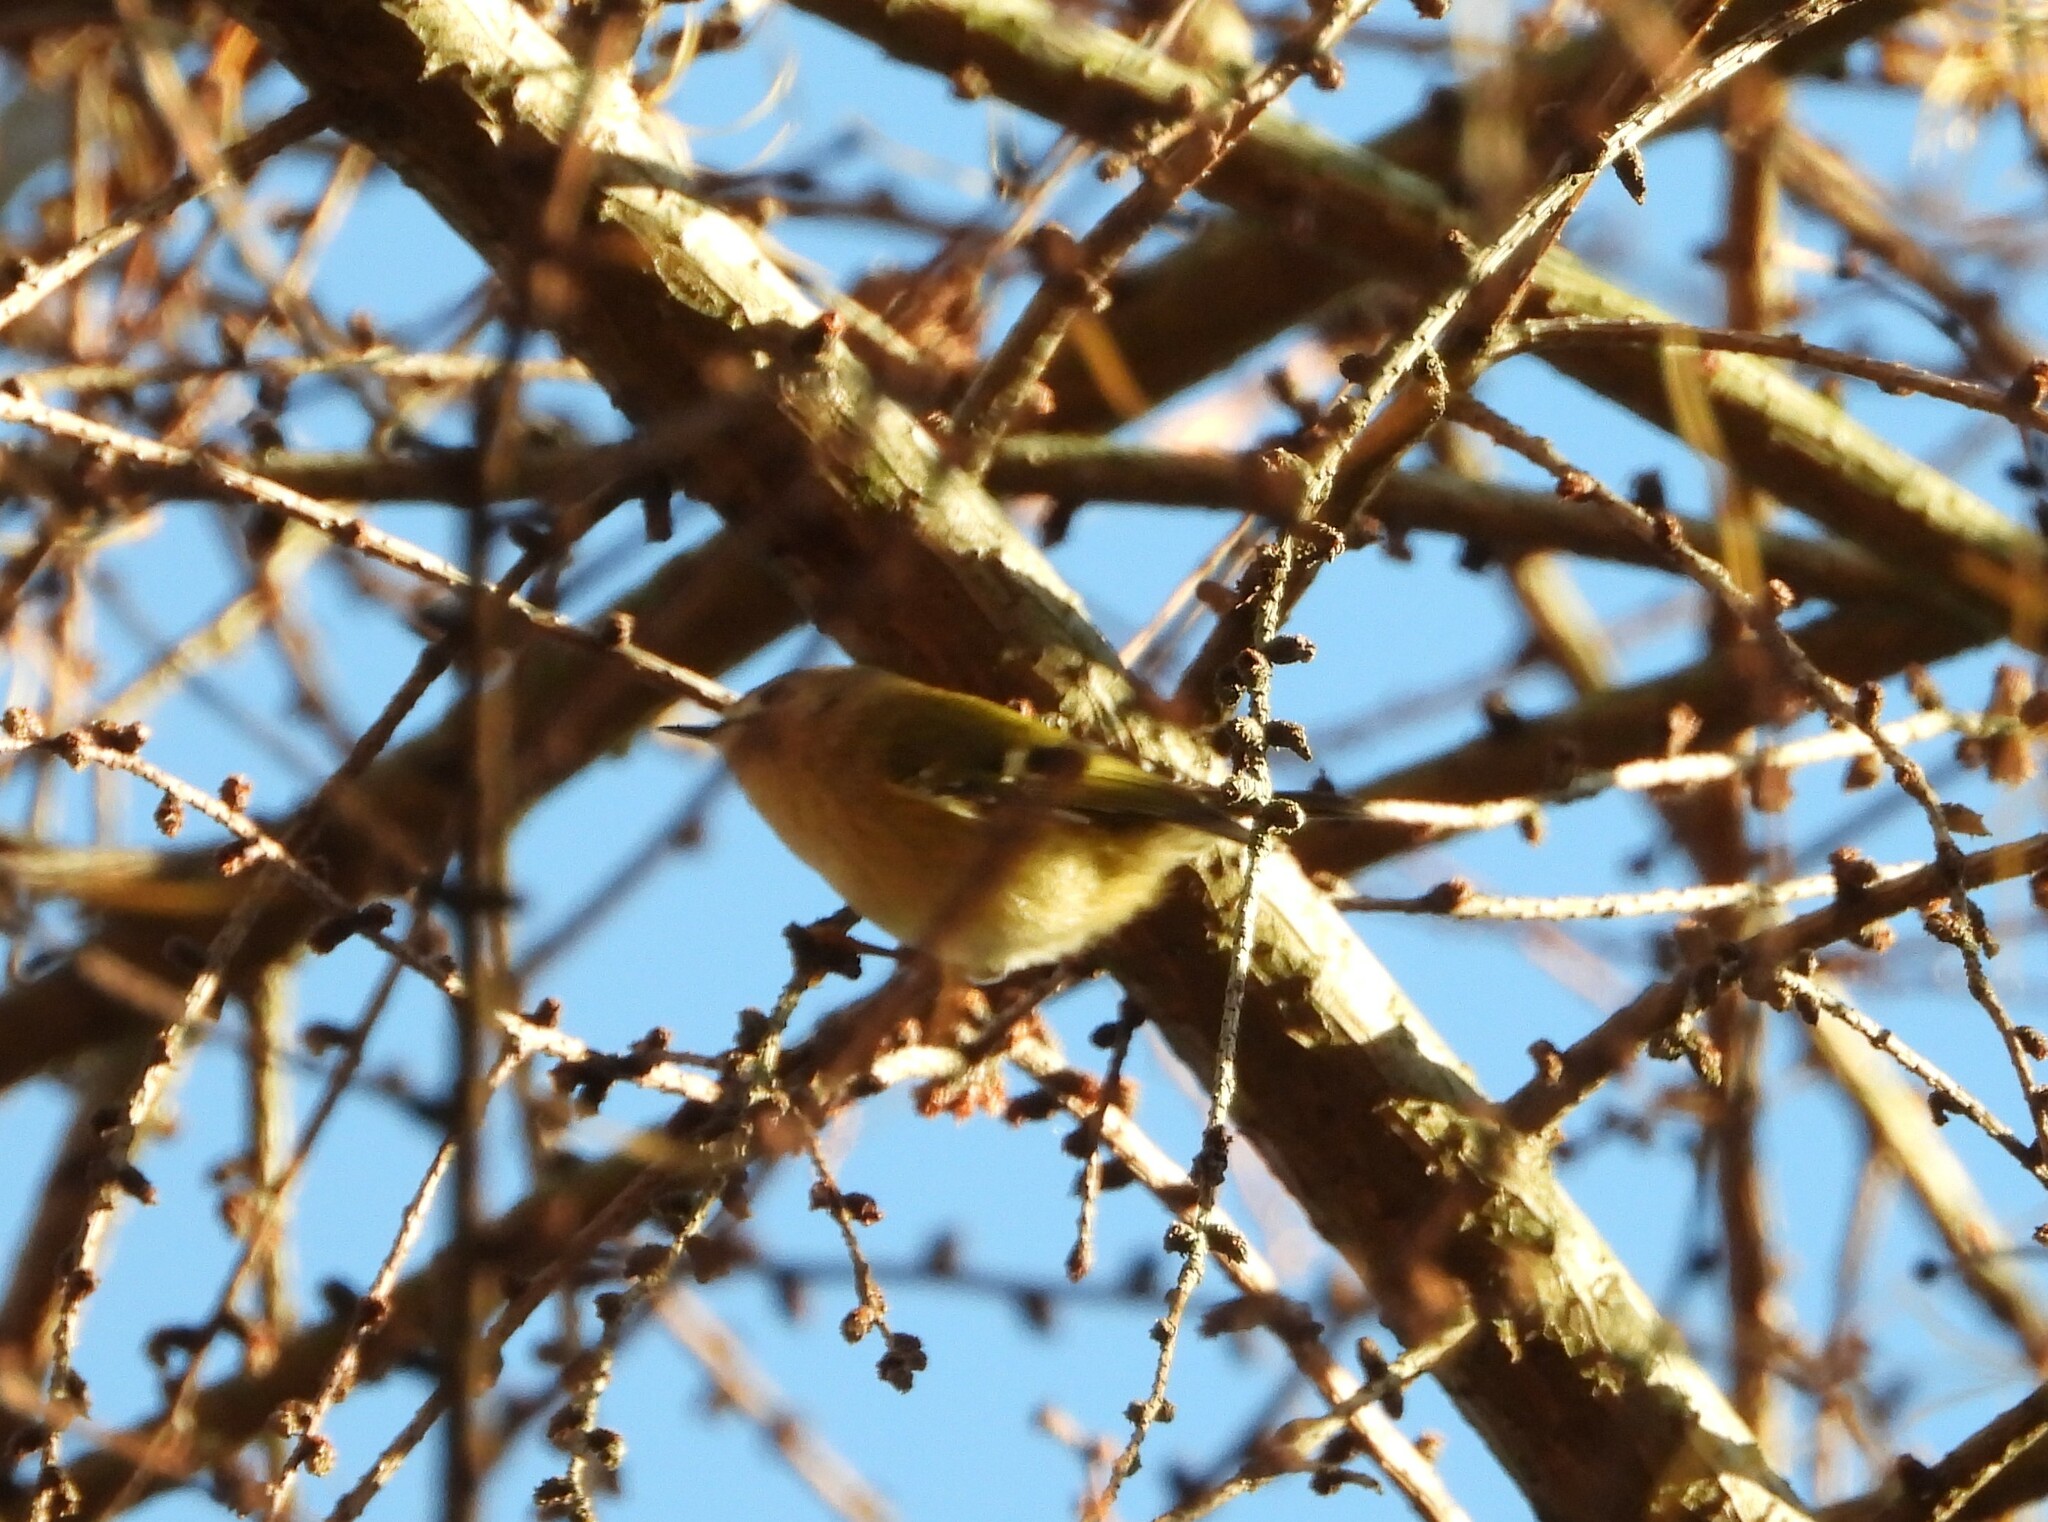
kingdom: Animalia
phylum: Chordata
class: Aves
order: Passeriformes
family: Regulidae
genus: Regulus
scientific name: Regulus regulus
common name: Goldcrest
